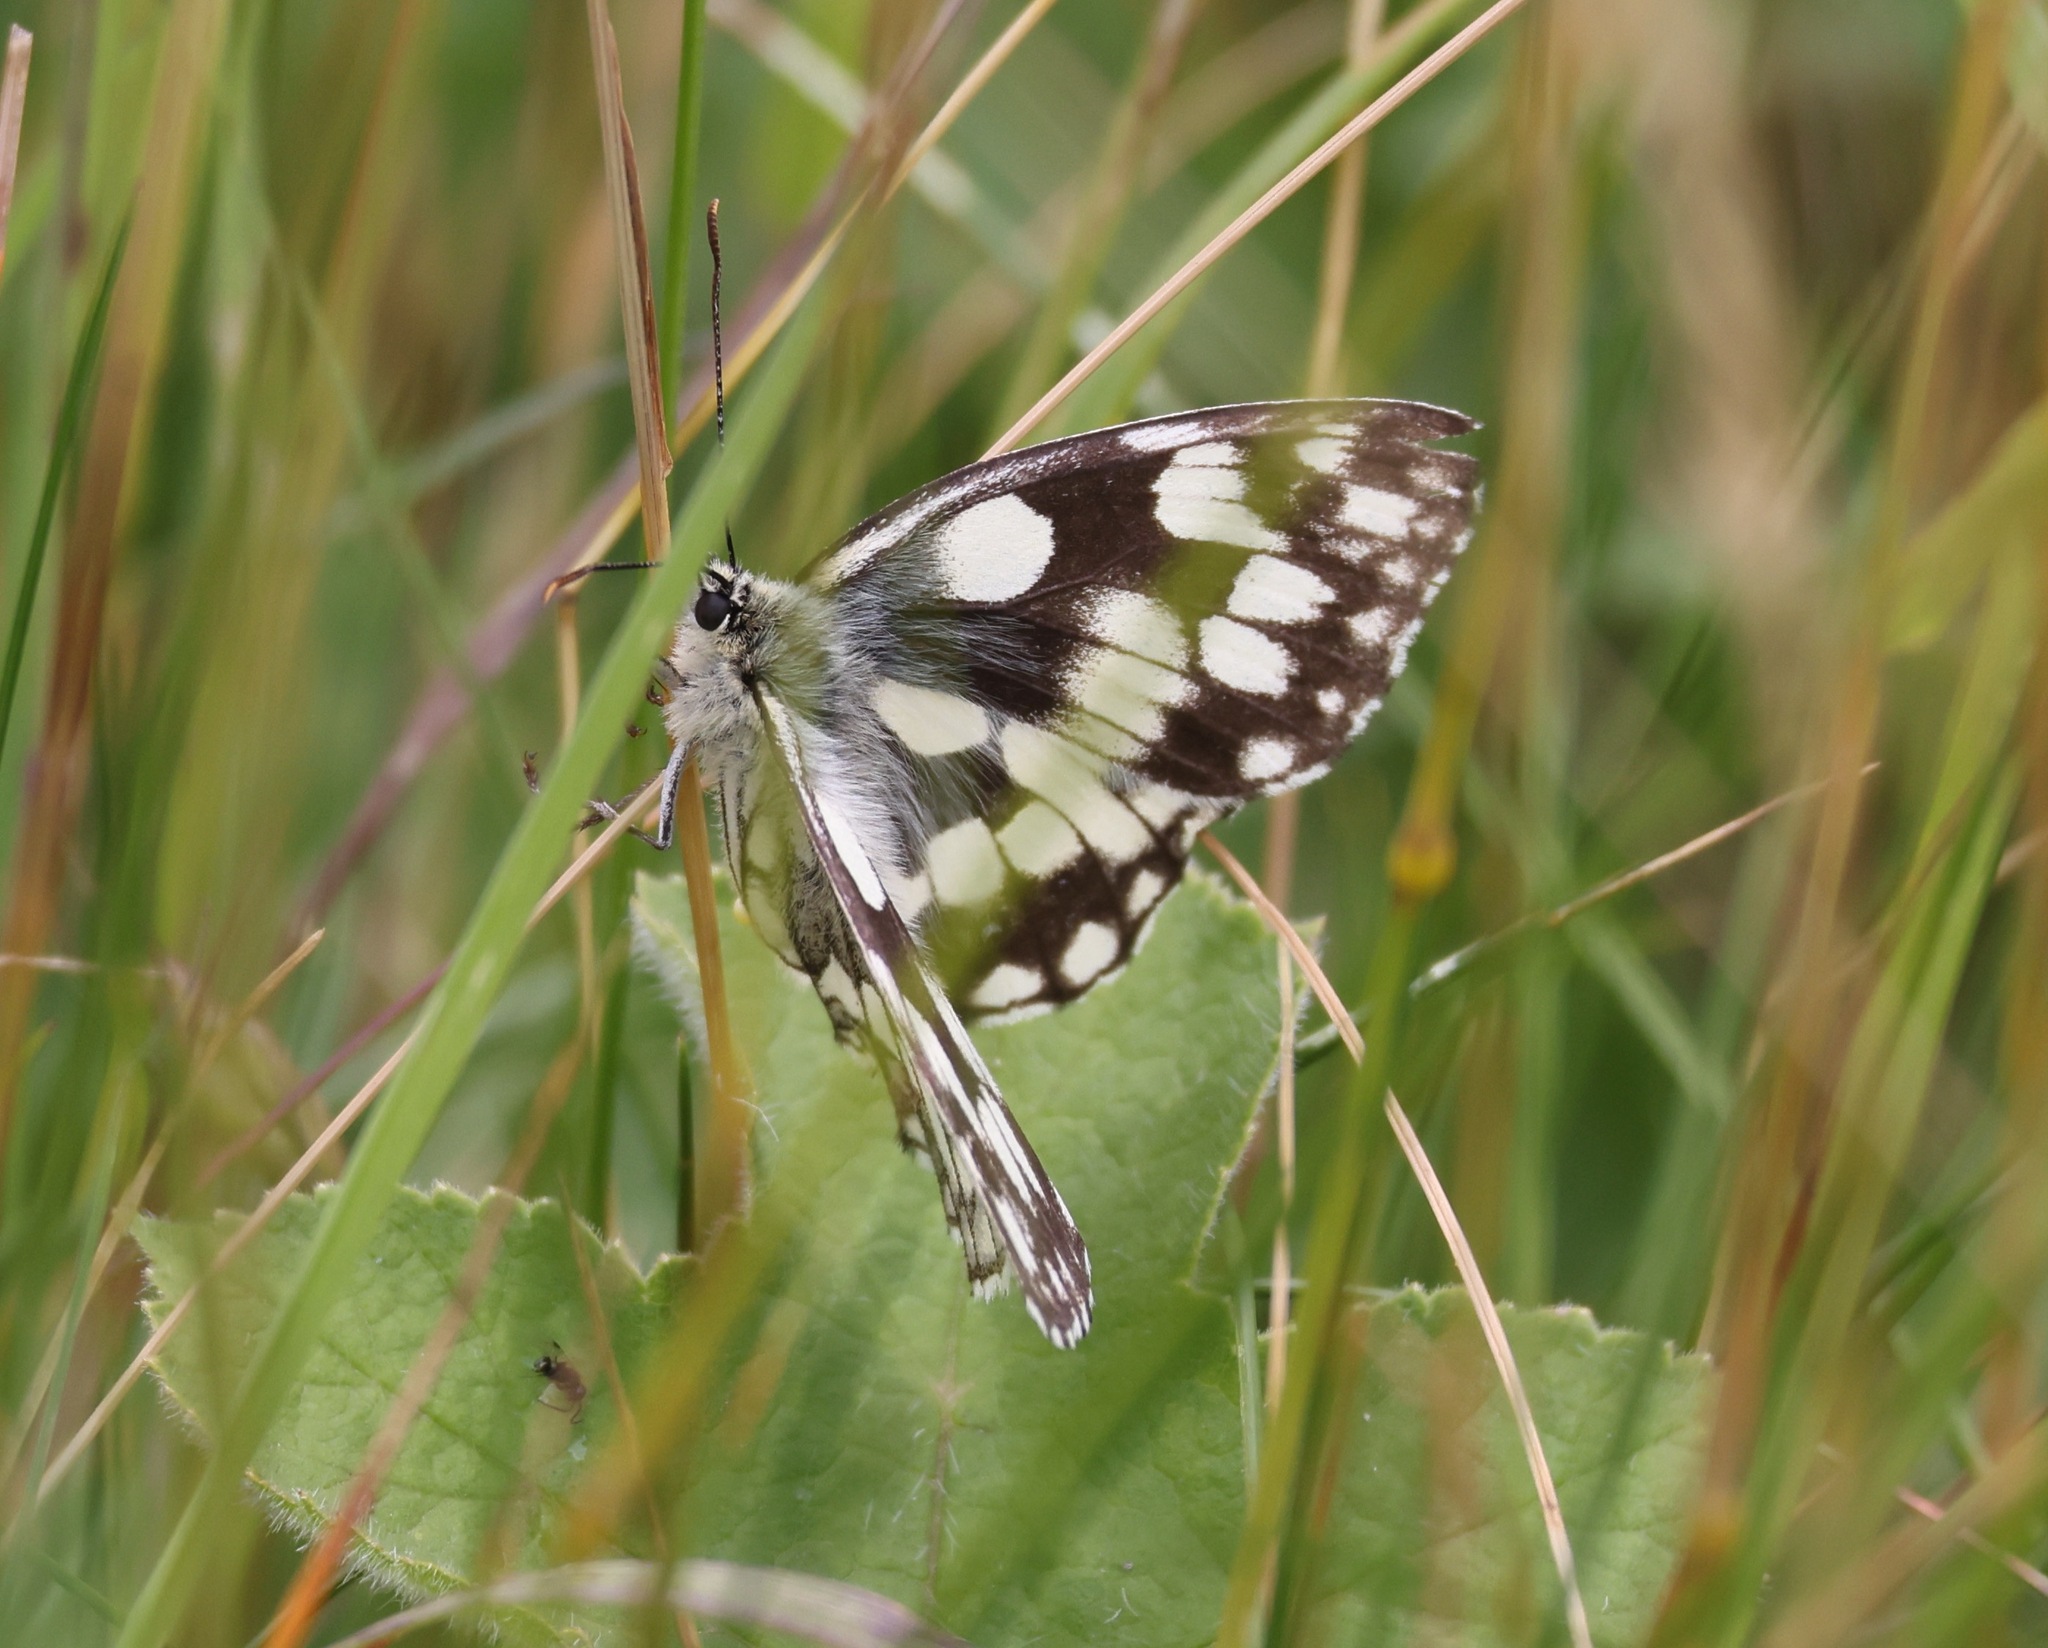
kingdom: Animalia
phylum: Arthropoda
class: Insecta
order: Lepidoptera
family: Nymphalidae
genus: Melanargia
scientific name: Melanargia galathea
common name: Marbled white
